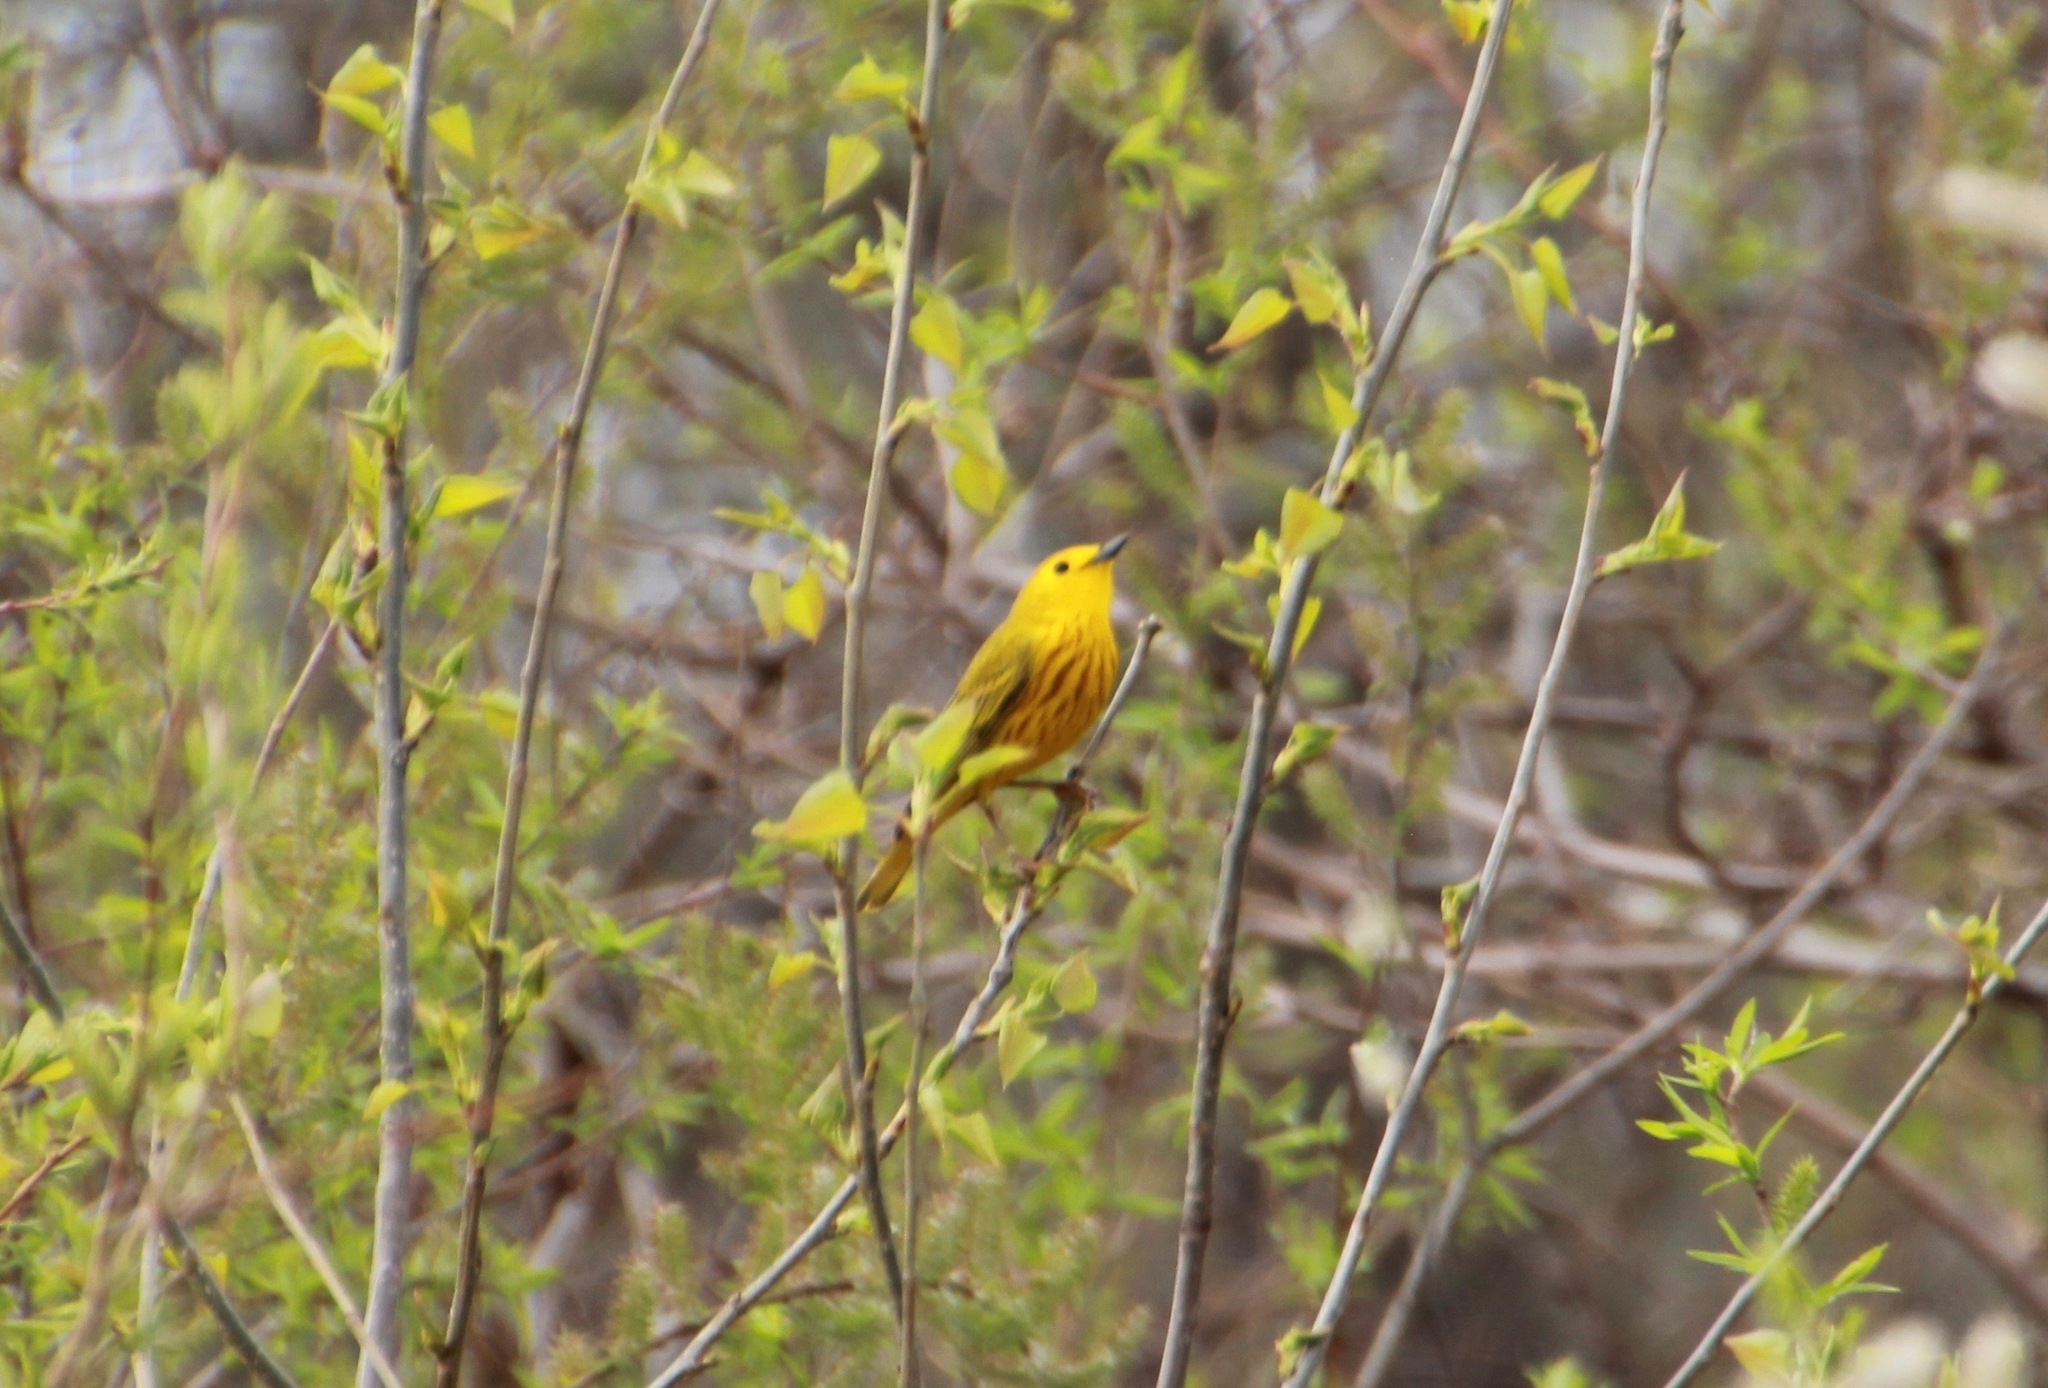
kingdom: Animalia
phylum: Chordata
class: Aves
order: Passeriformes
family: Parulidae
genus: Setophaga
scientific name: Setophaga petechia
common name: Yellow warbler
